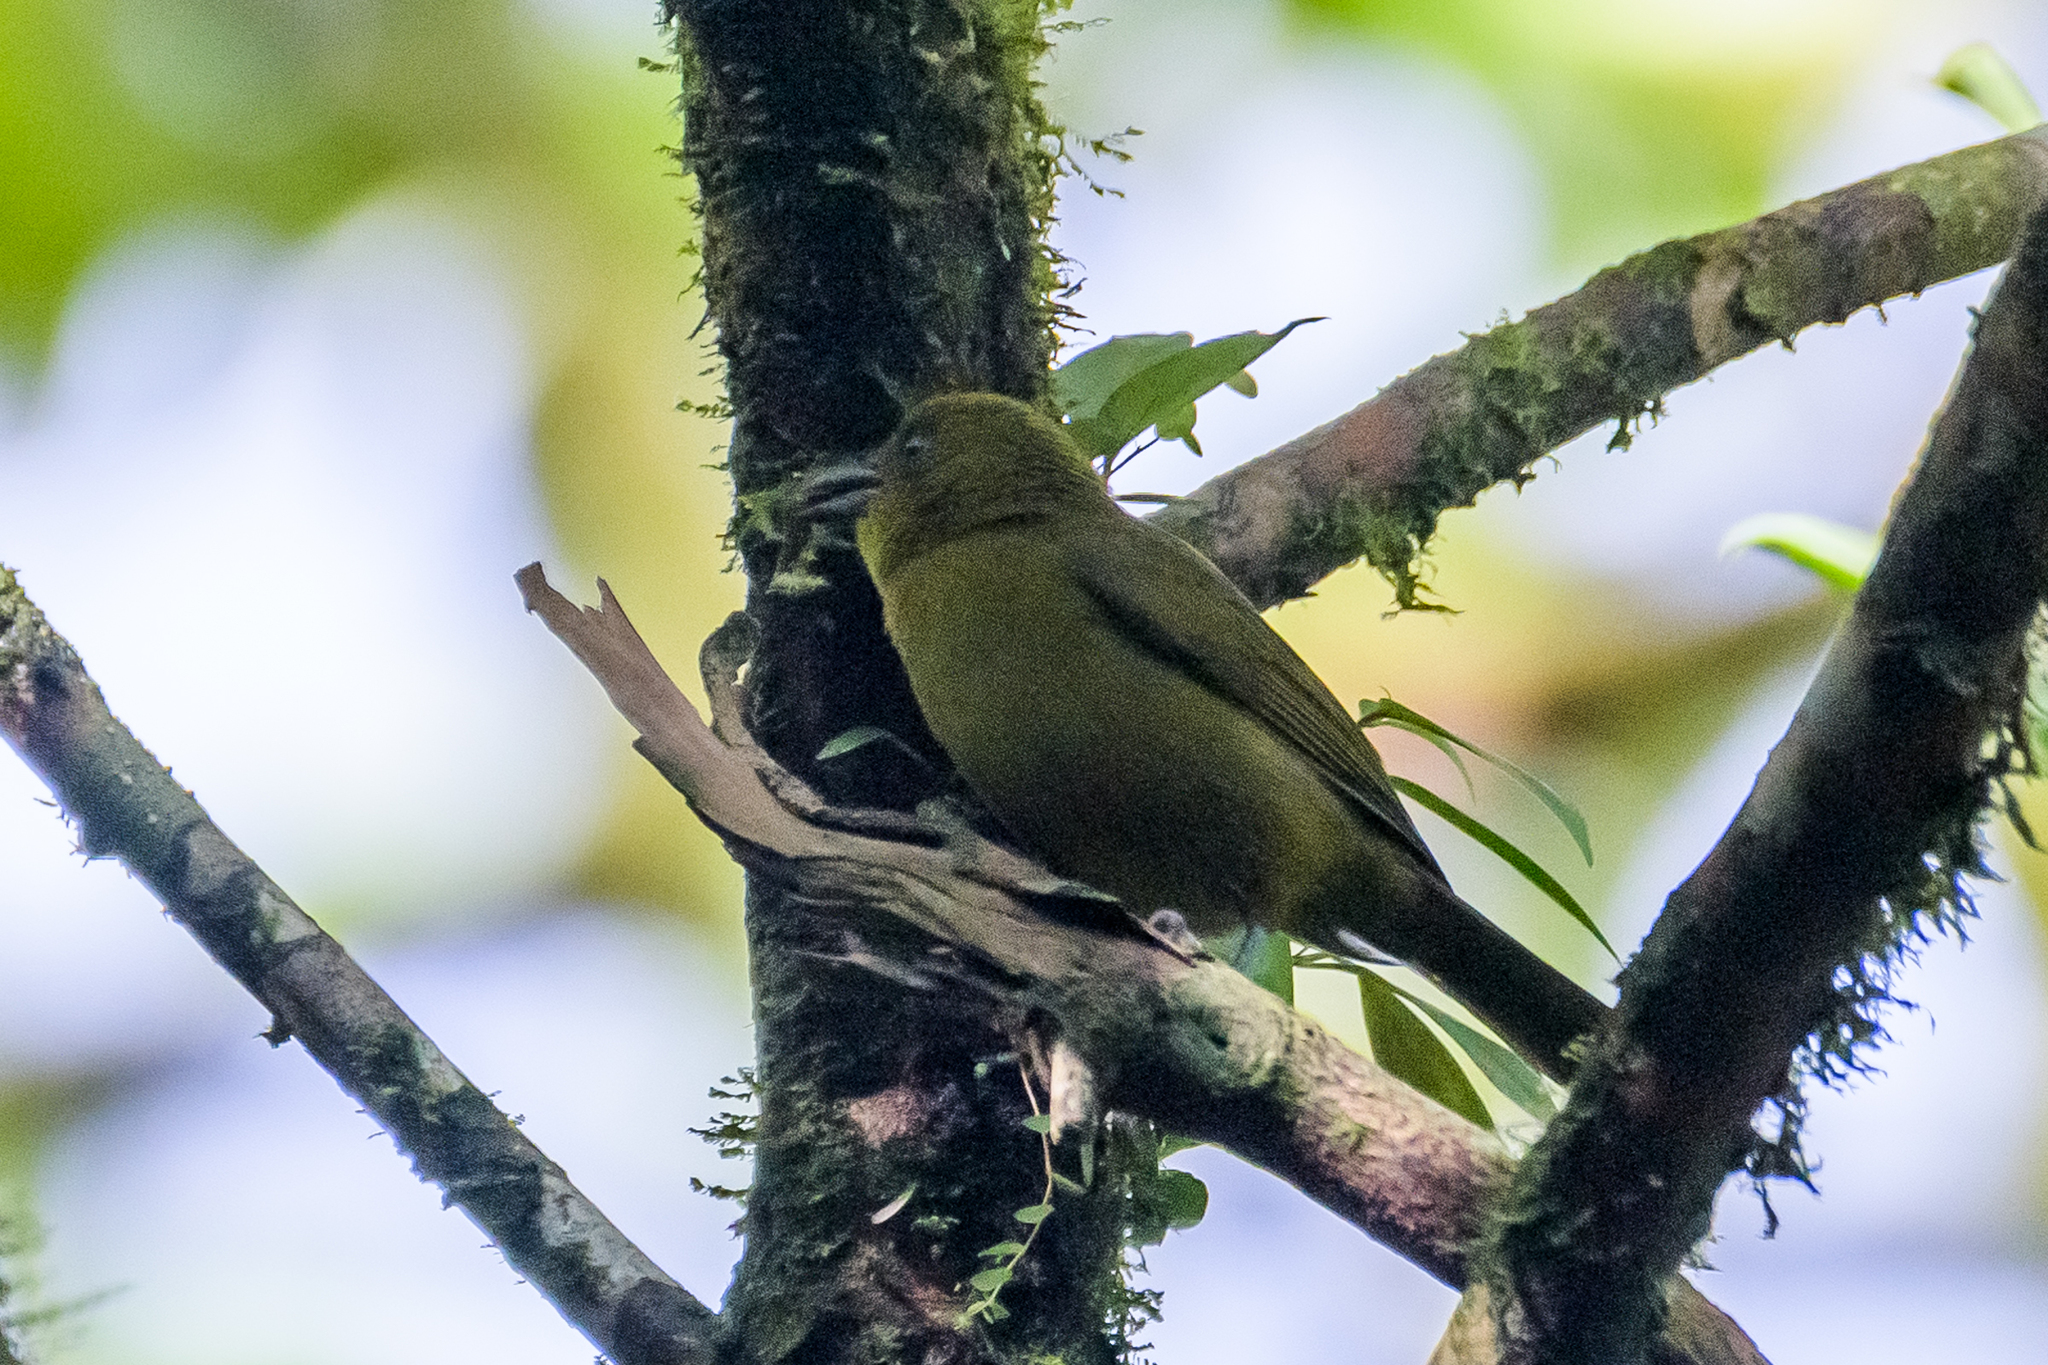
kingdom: Animalia
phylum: Chordata
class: Aves
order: Passeriformes
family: Cardinalidae
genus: Chlorothraupis
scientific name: Chlorothraupis carmioli
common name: Carmiol's tanager
